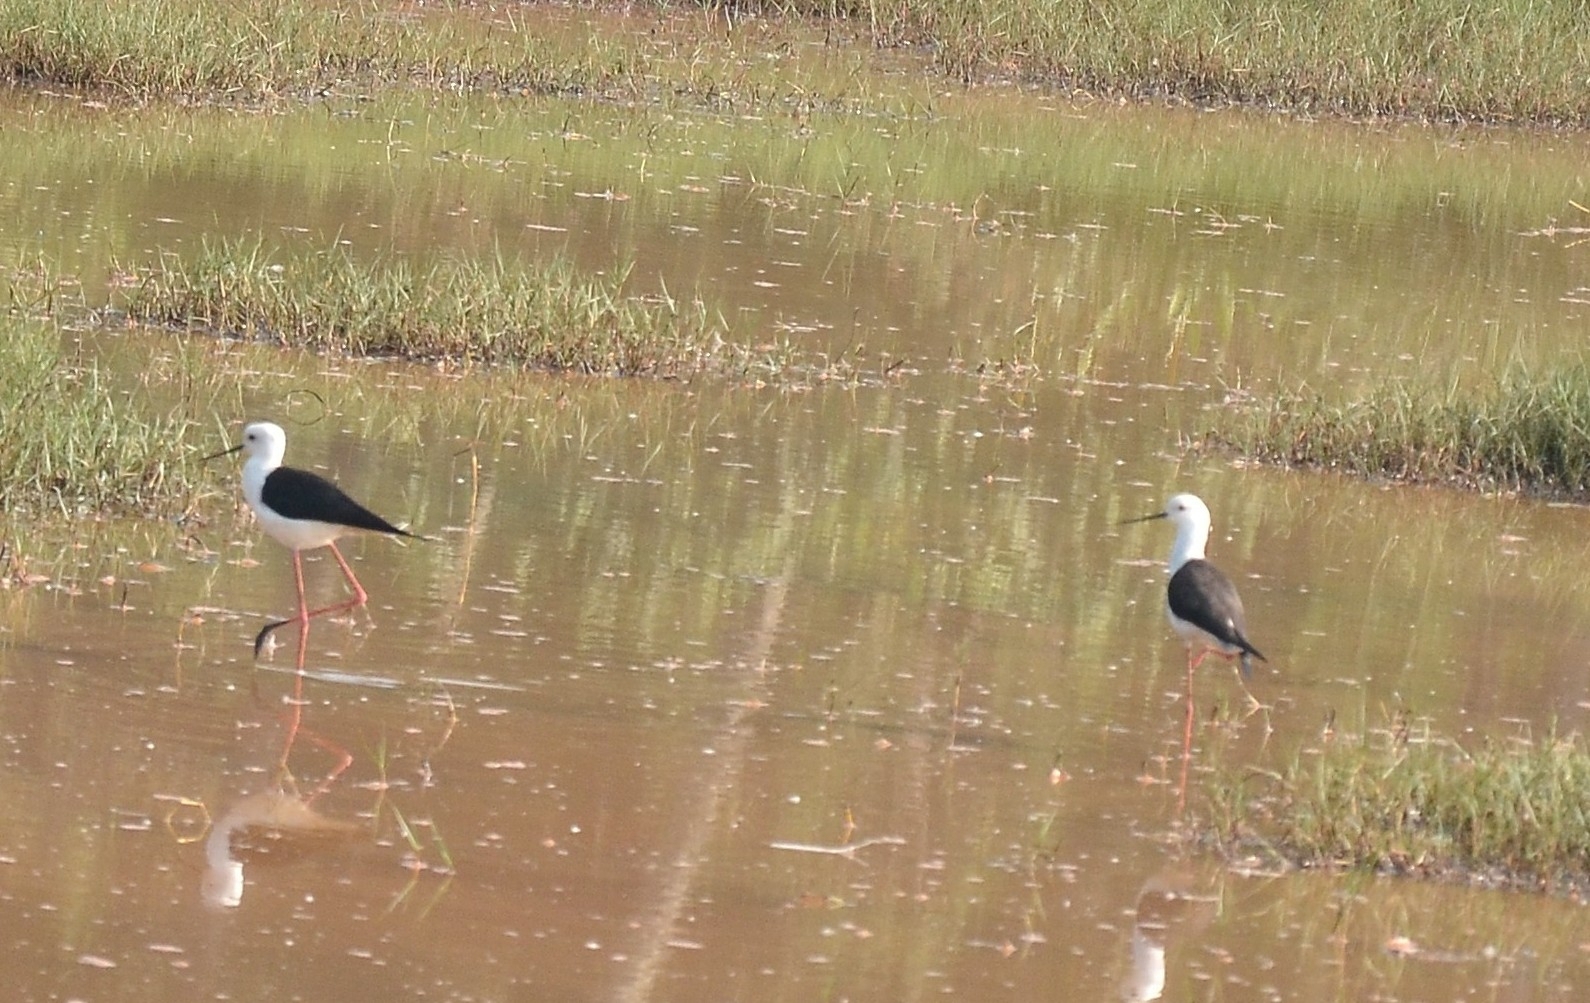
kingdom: Animalia
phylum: Chordata
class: Aves
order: Charadriiformes
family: Recurvirostridae
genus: Himantopus
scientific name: Himantopus himantopus
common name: Black-winged stilt
